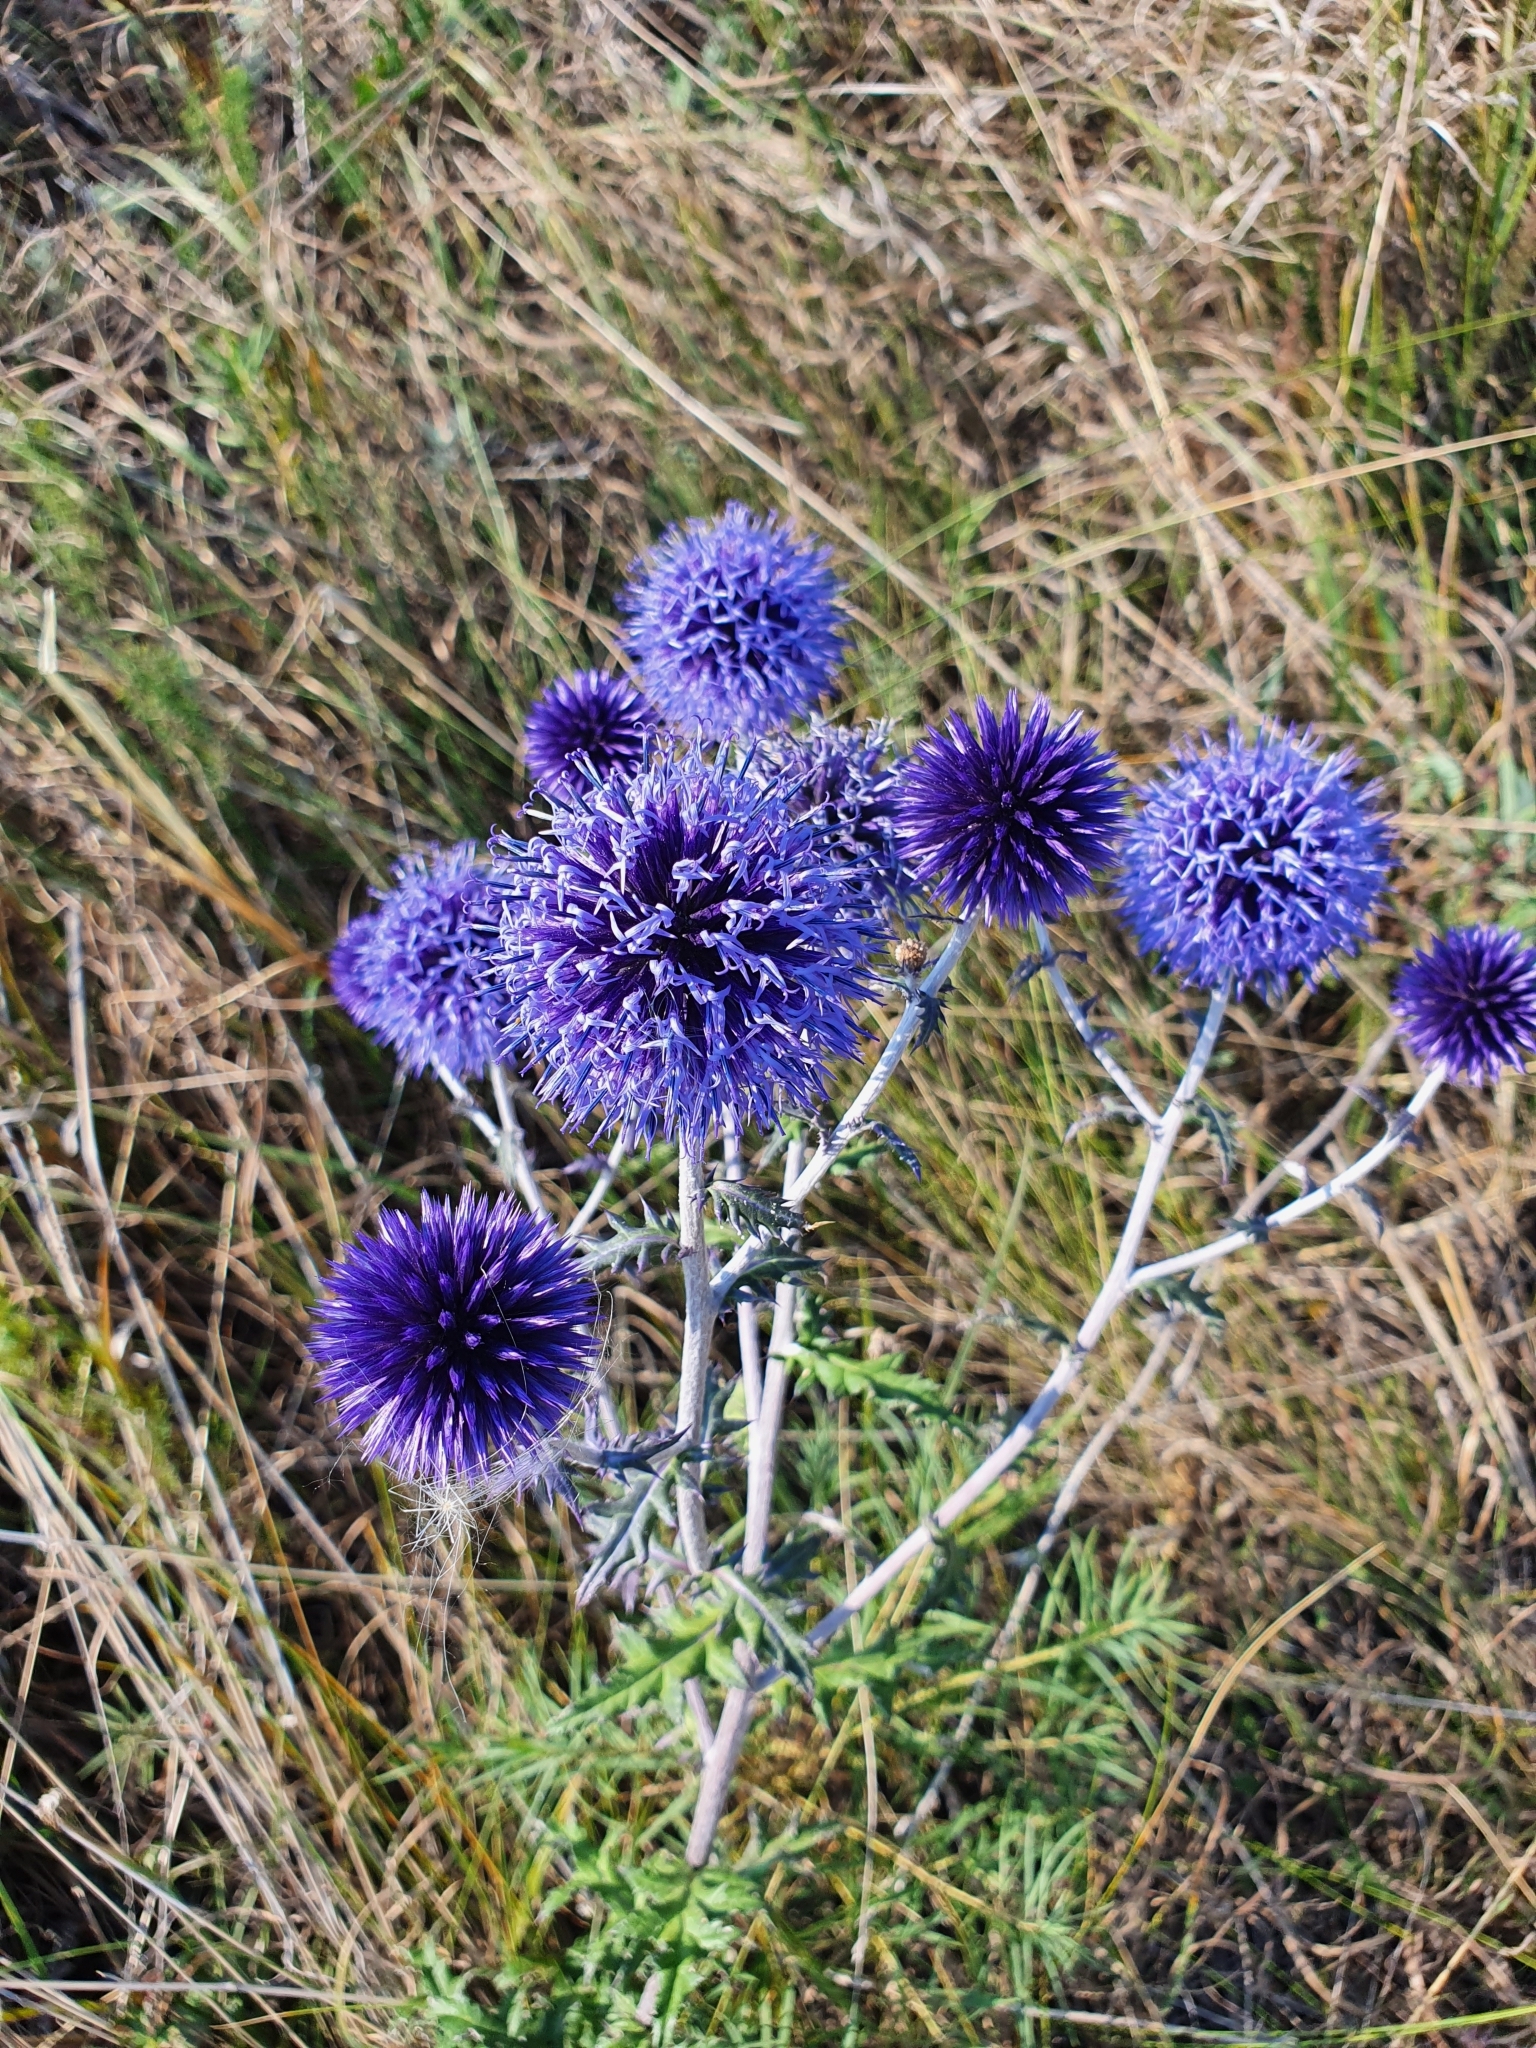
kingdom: Plantae
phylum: Tracheophyta
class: Magnoliopsida
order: Asterales
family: Asteraceae
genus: Echinops
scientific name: Echinops ritro
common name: Globe thistle
